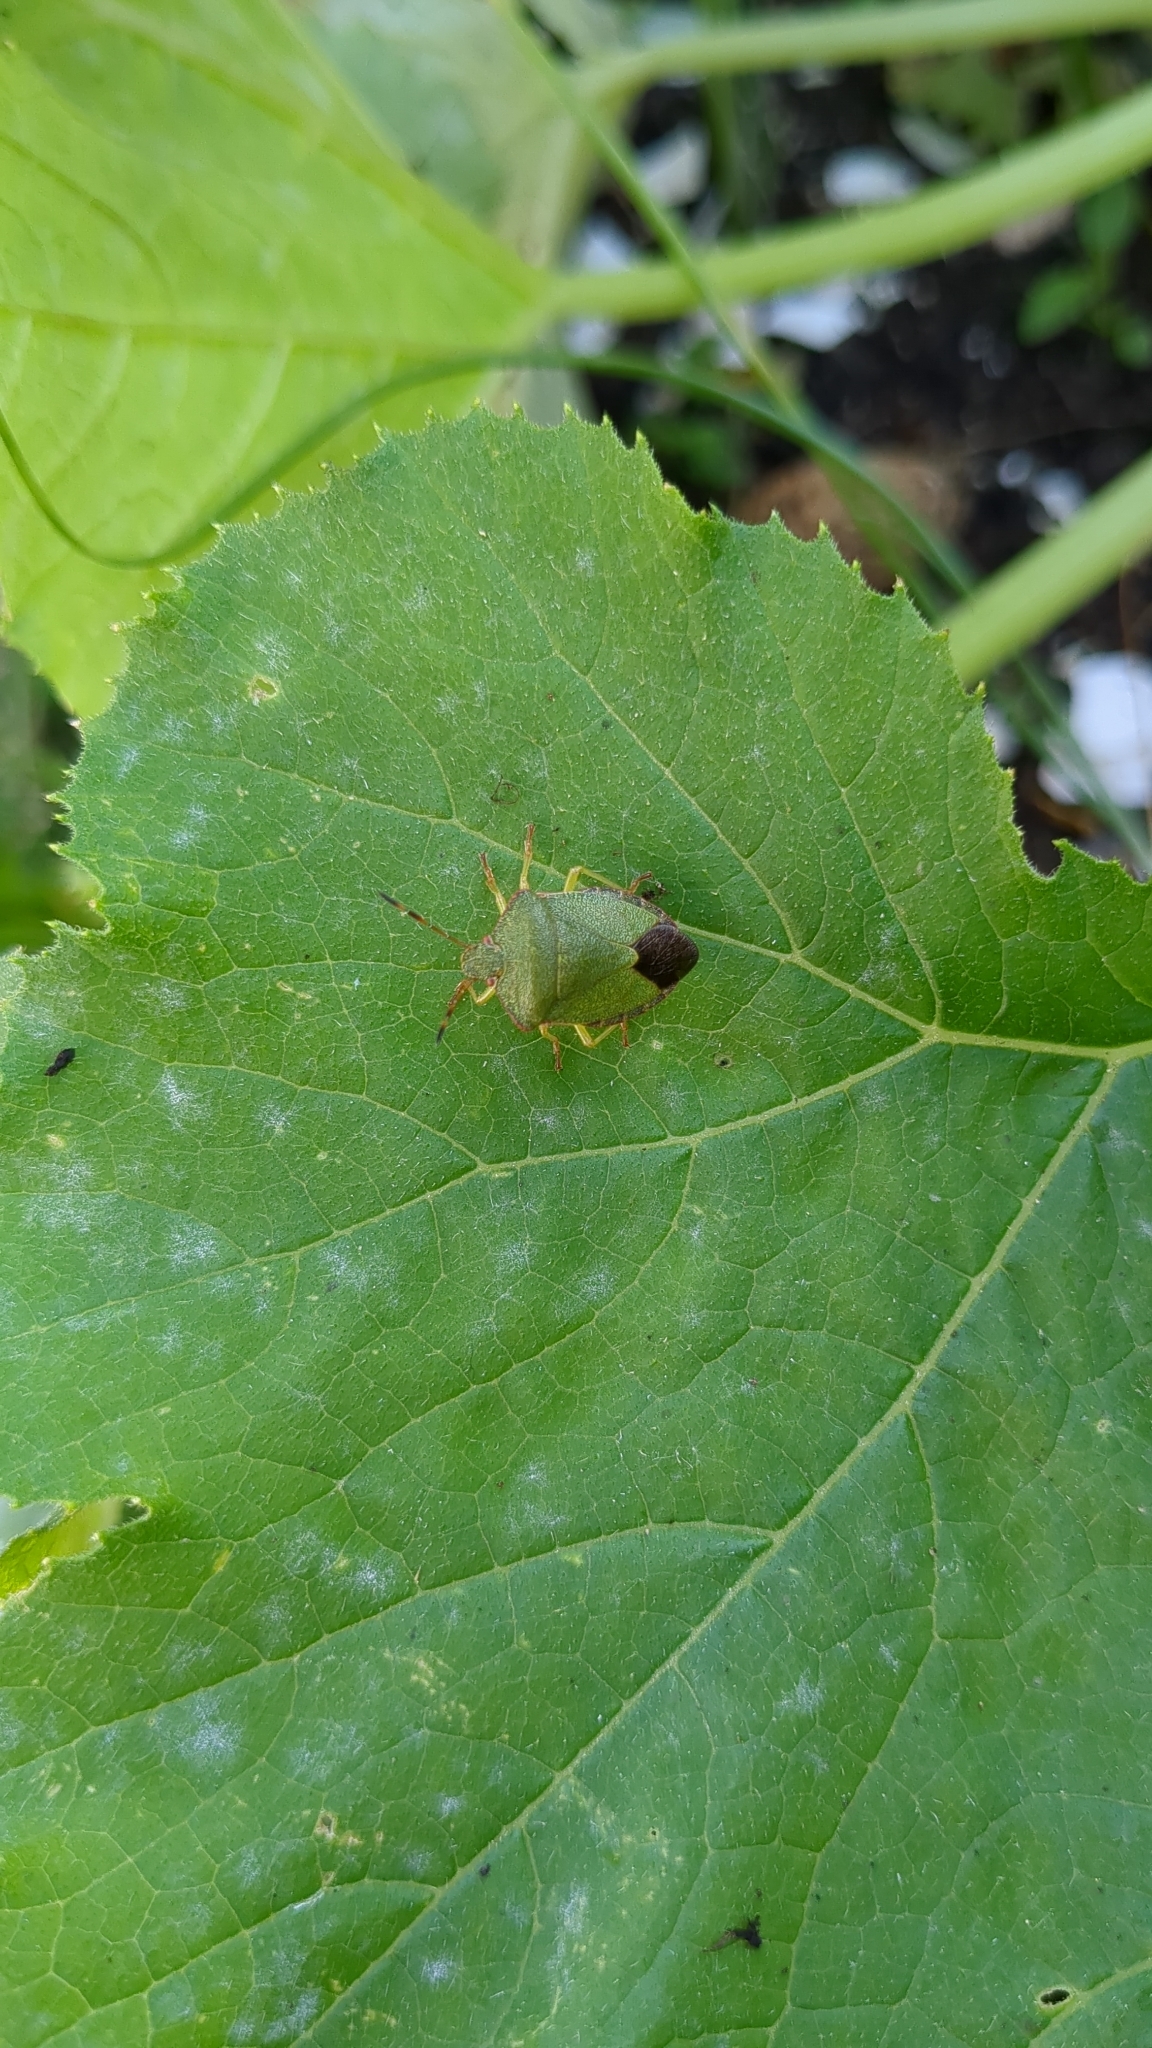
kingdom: Animalia
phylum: Arthropoda
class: Insecta
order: Hemiptera
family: Pentatomidae
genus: Palomena
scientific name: Palomena prasina
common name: Green shieldbug
